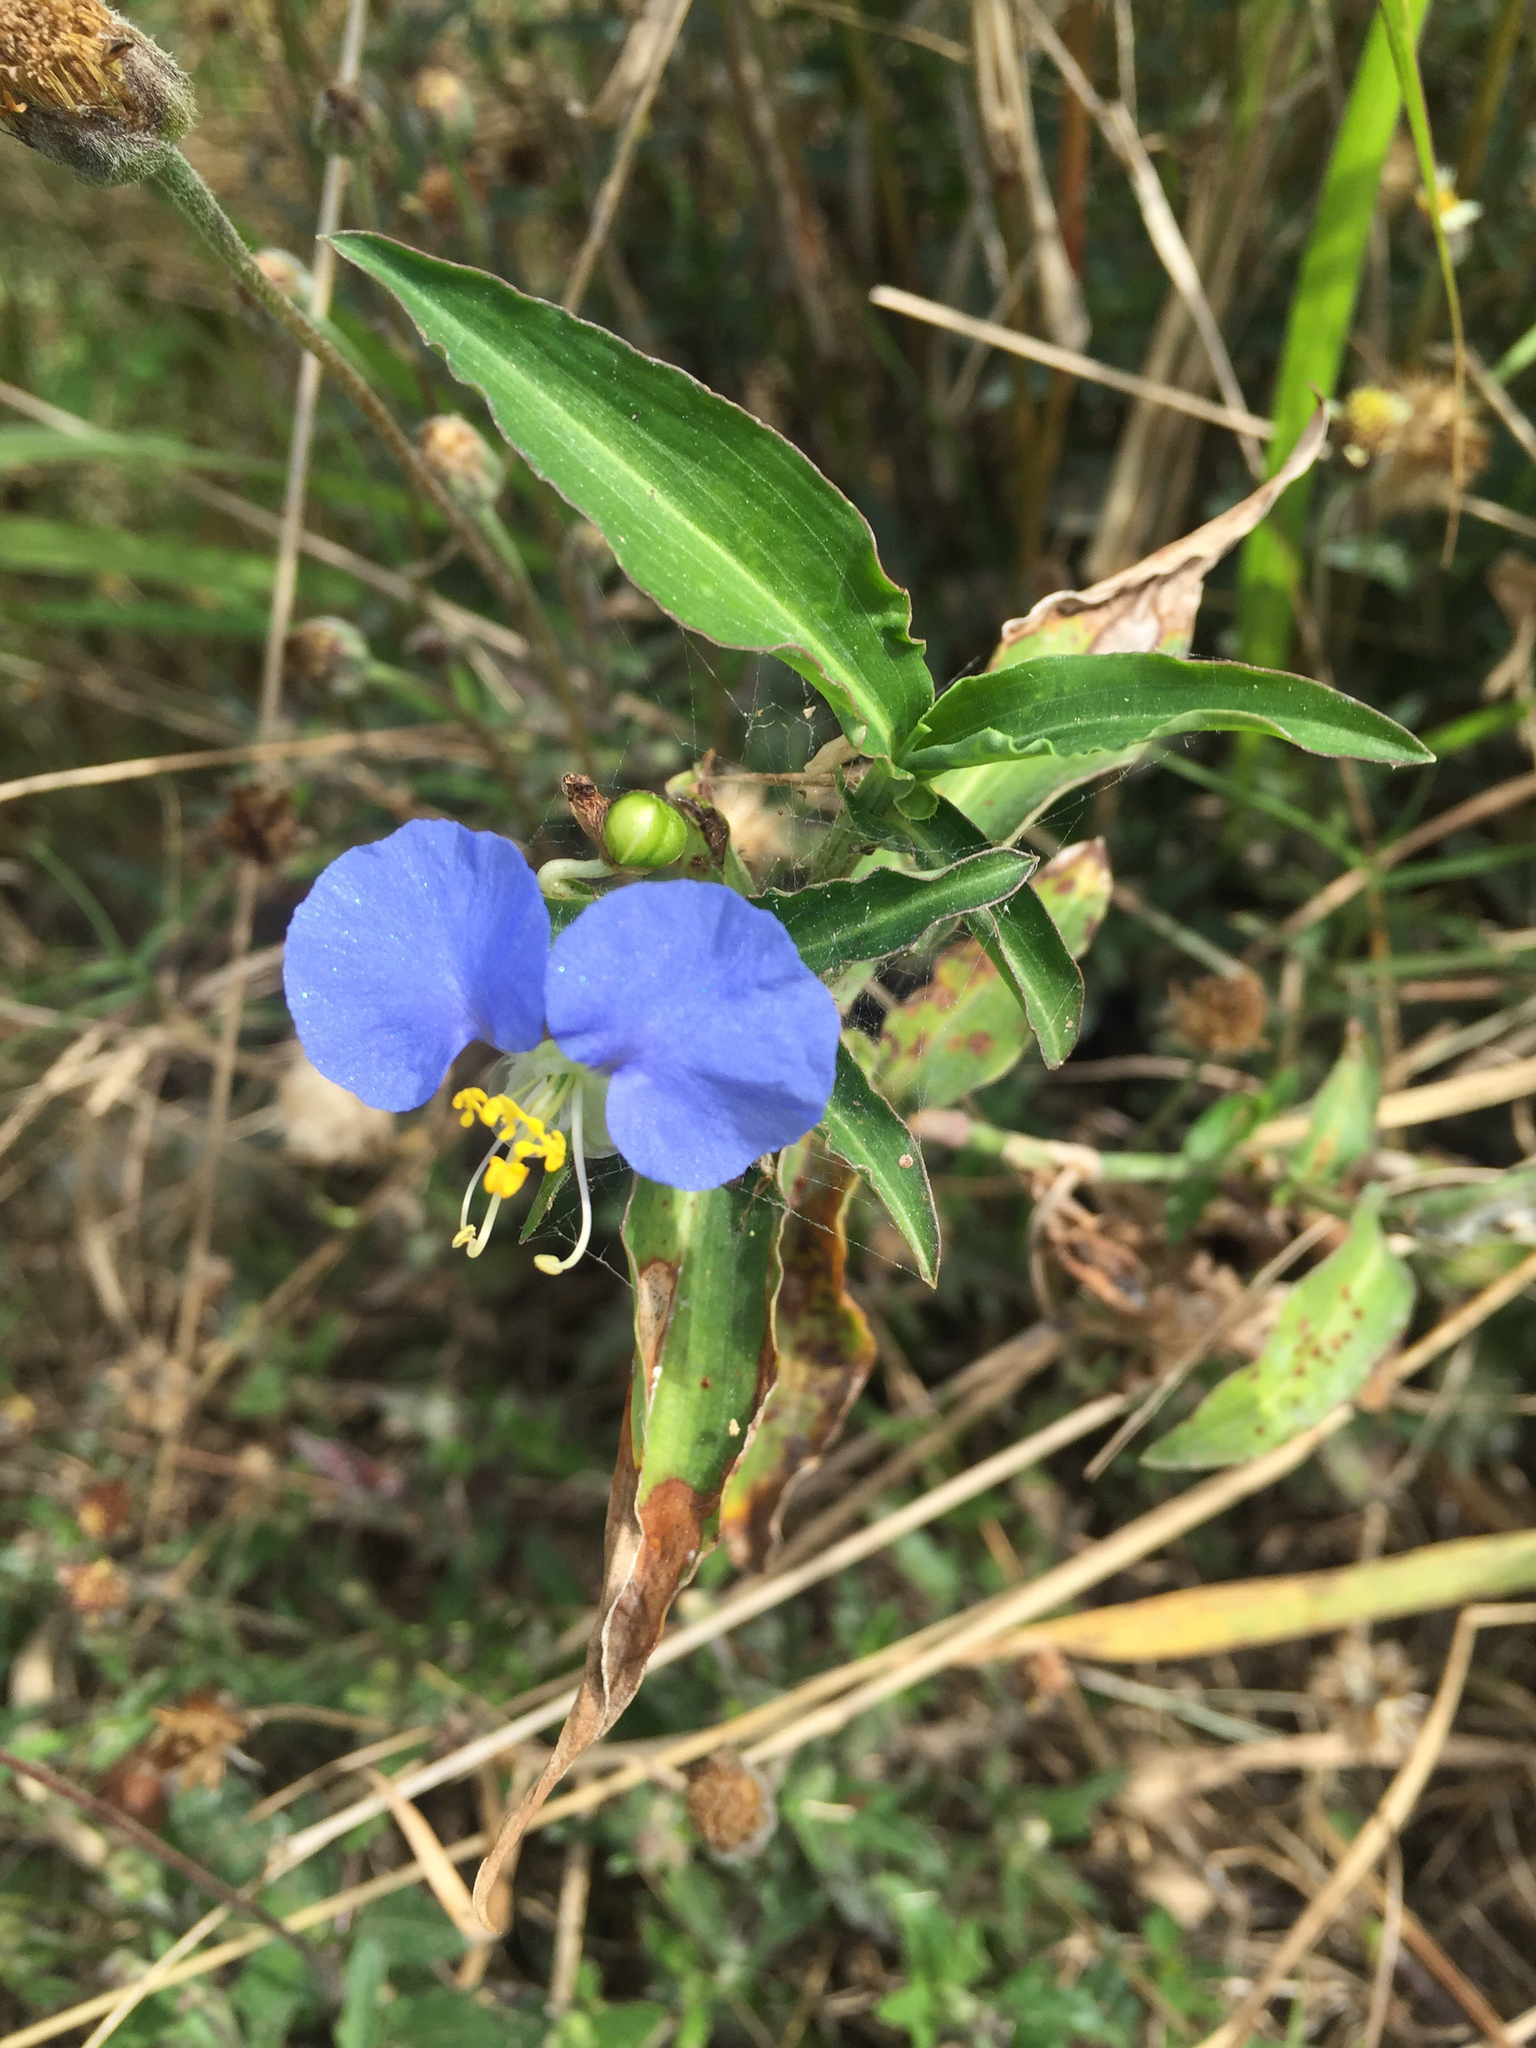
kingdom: Plantae
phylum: Tracheophyta
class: Liliopsida
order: Commelinales
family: Commelinaceae
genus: Commelina
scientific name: Commelina erecta
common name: Blousel blommetjie
